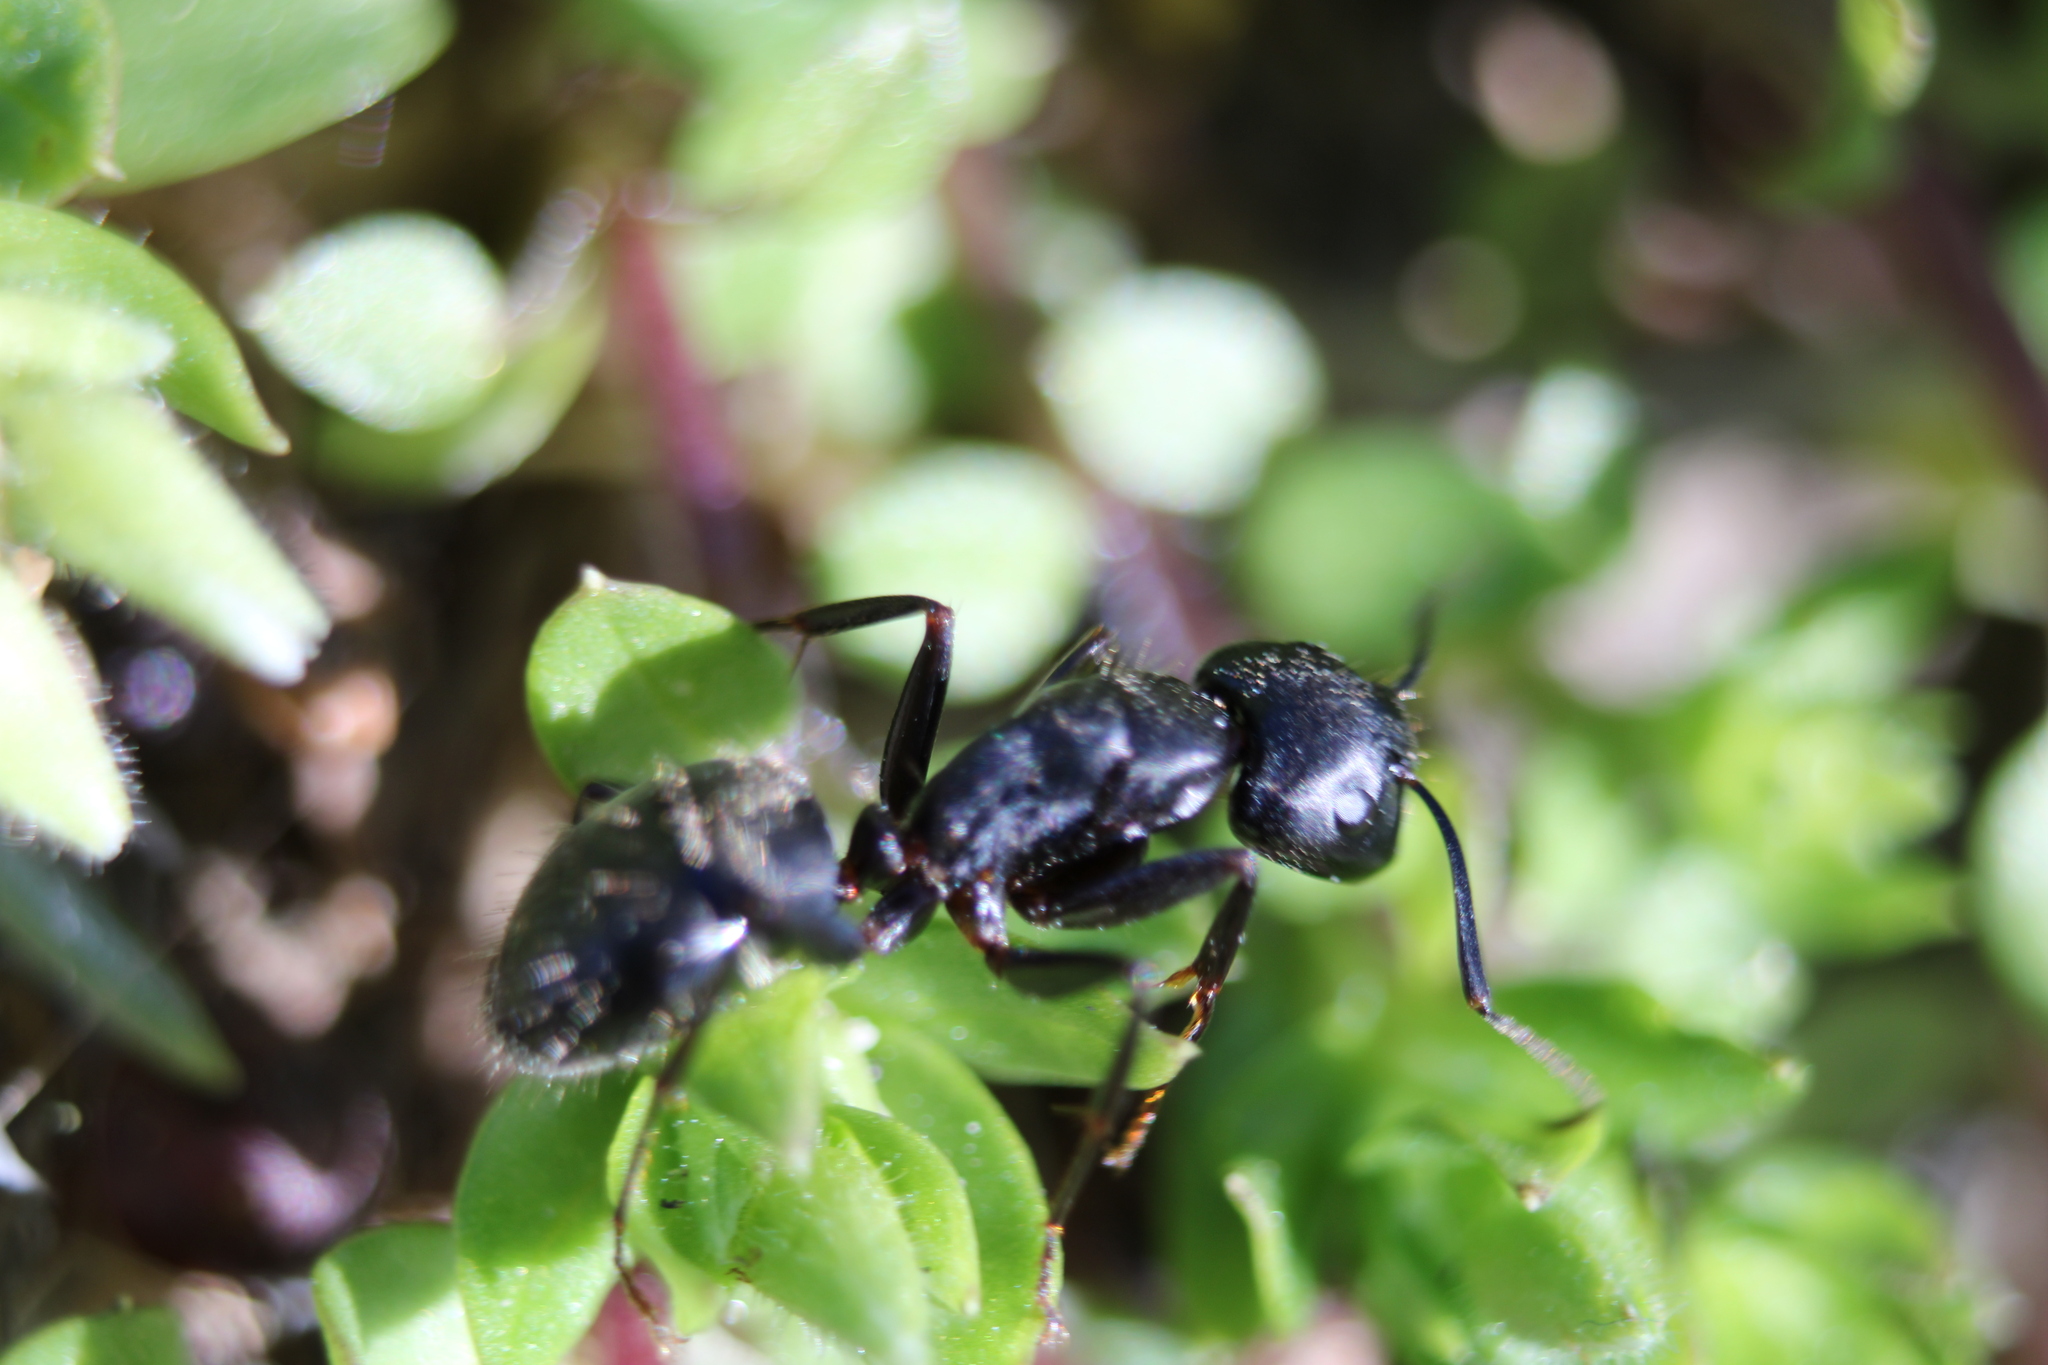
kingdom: Animalia
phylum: Arthropoda
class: Insecta
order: Hymenoptera
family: Formicidae
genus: Camponotus
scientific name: Camponotus pennsylvanicus
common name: Black carpenter ant
